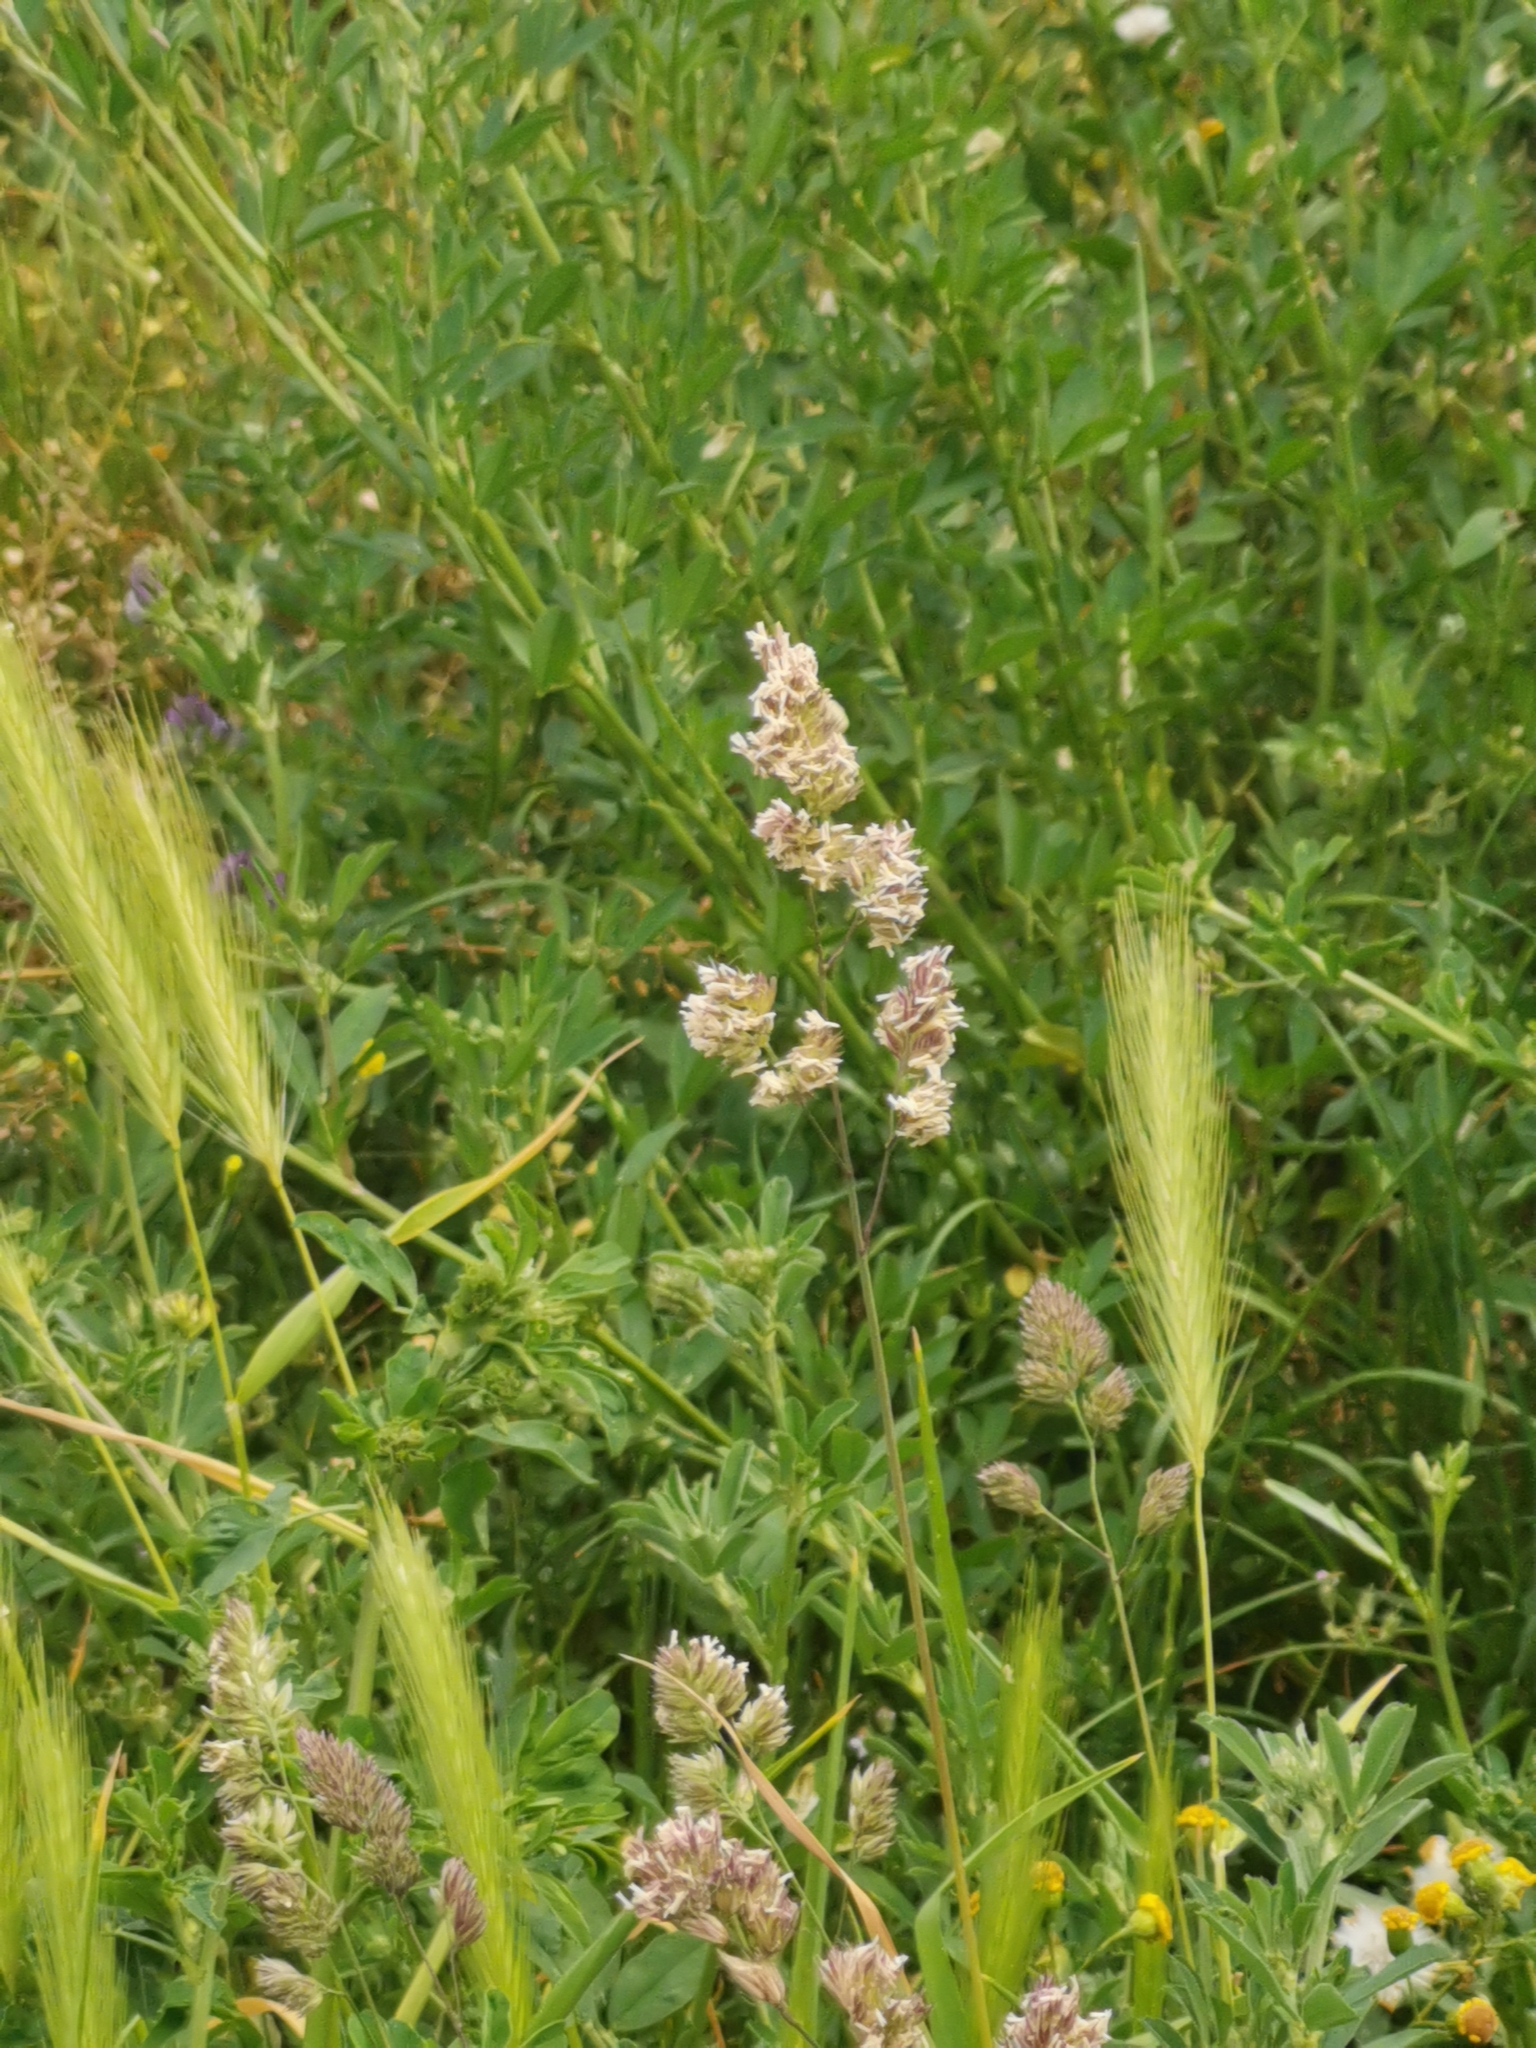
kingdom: Plantae
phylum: Tracheophyta
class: Liliopsida
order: Poales
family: Poaceae
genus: Dactylis
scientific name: Dactylis glomerata
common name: Orchardgrass
